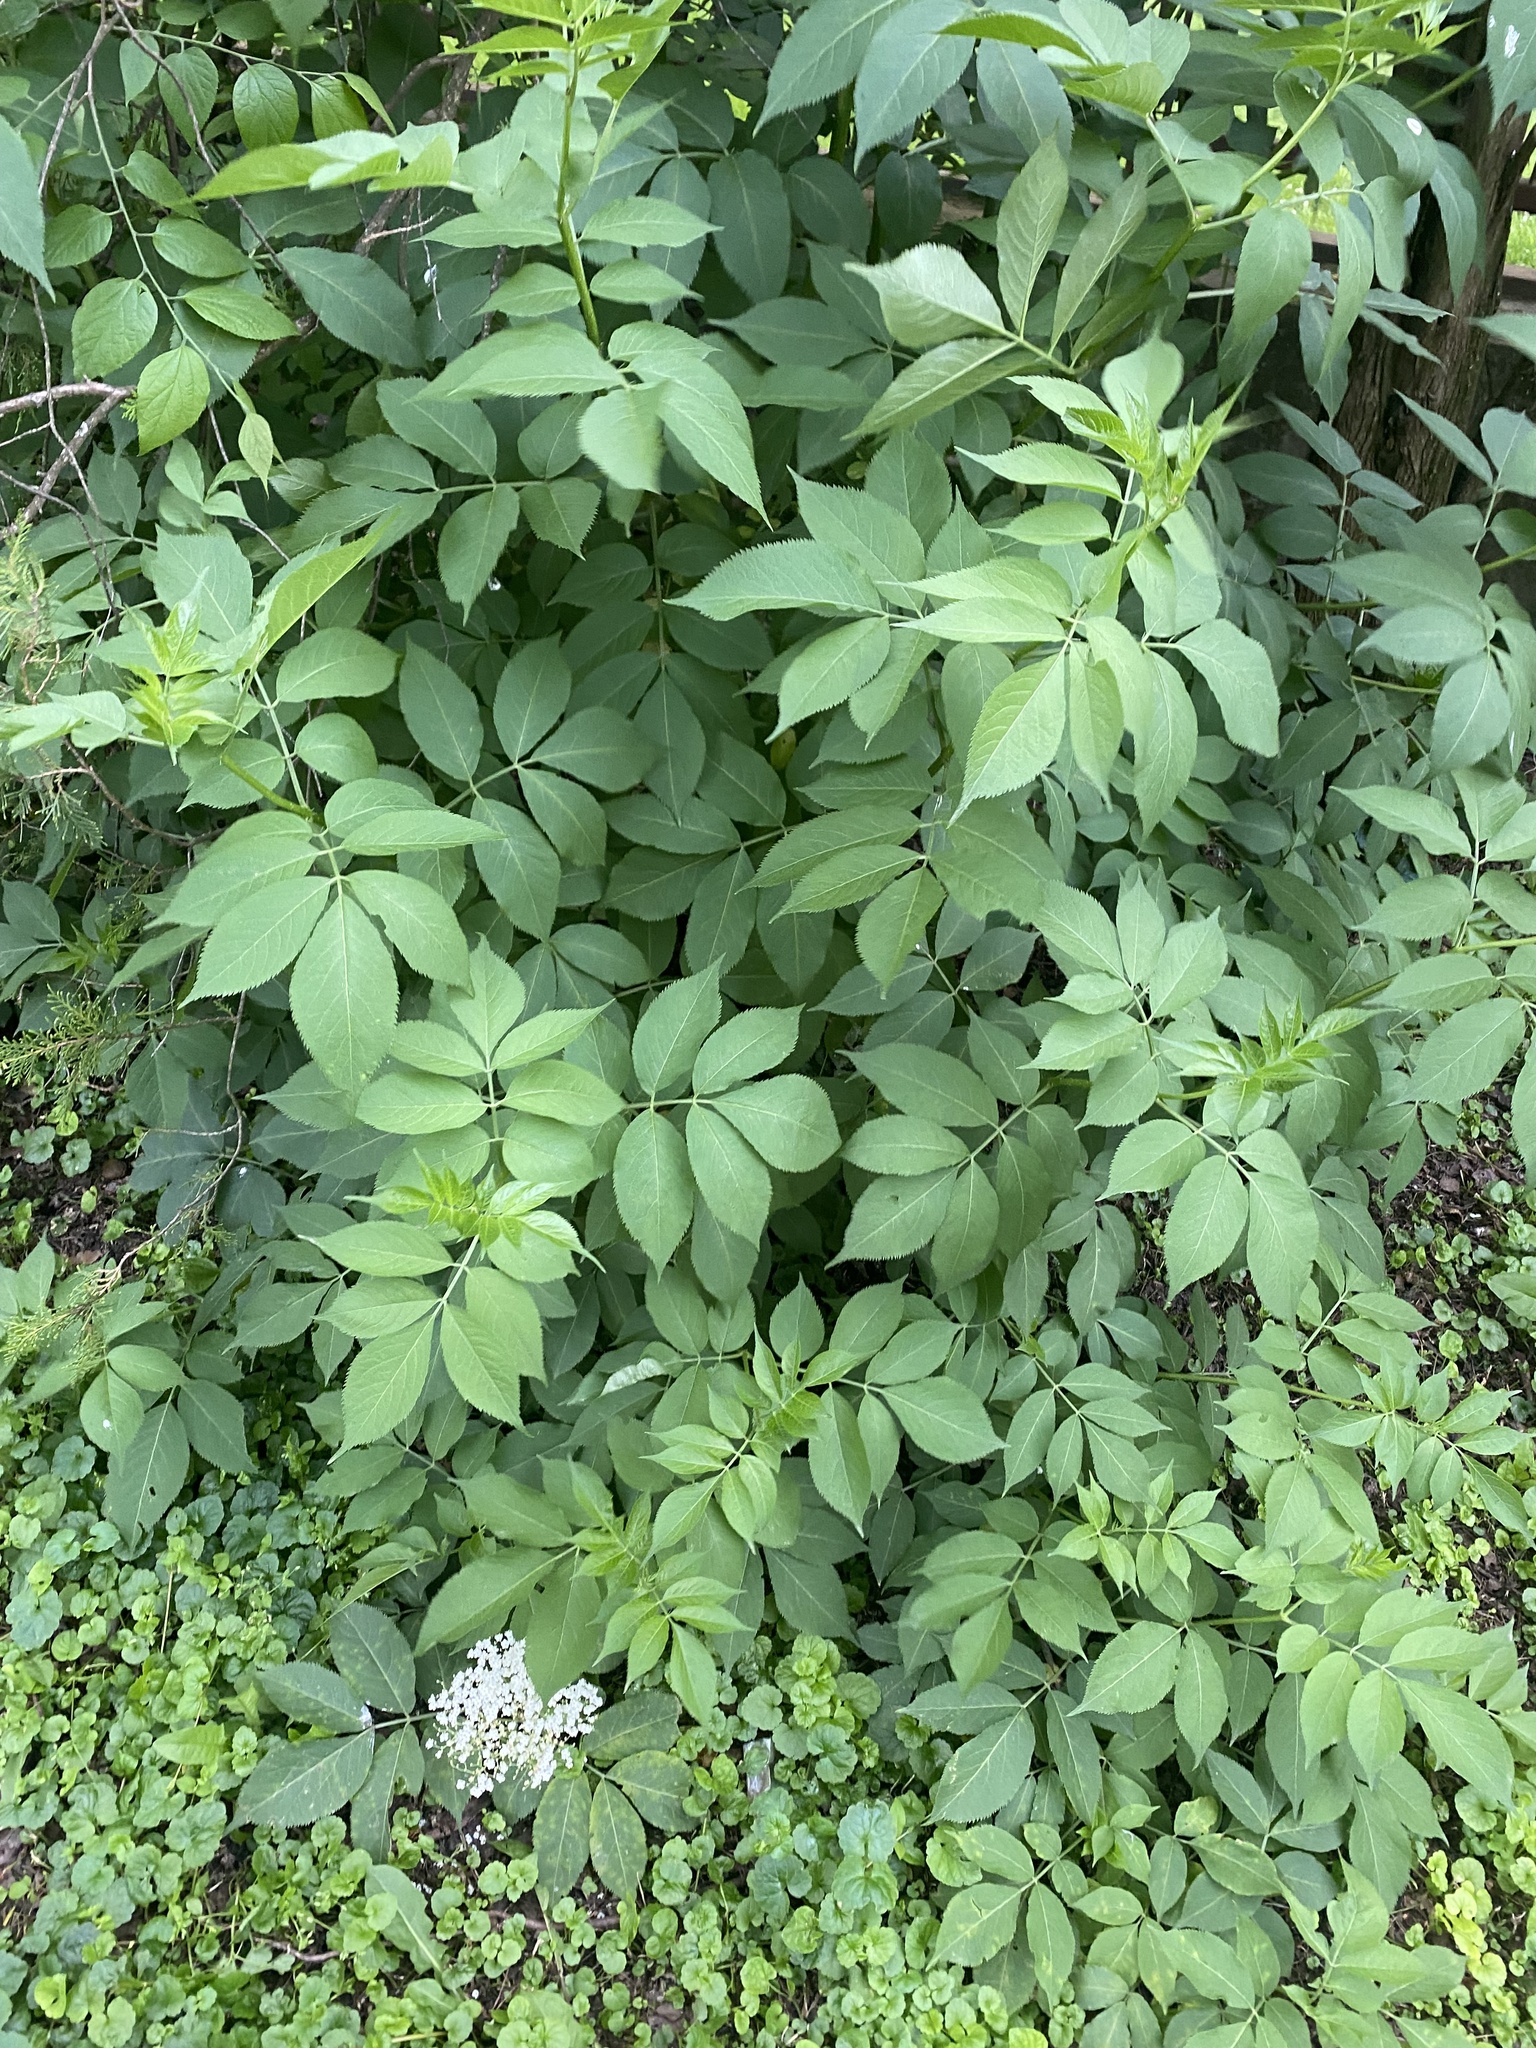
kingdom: Plantae
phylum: Tracheophyta
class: Magnoliopsida
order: Dipsacales
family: Viburnaceae
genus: Sambucus
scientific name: Sambucus nigra
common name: Elder
